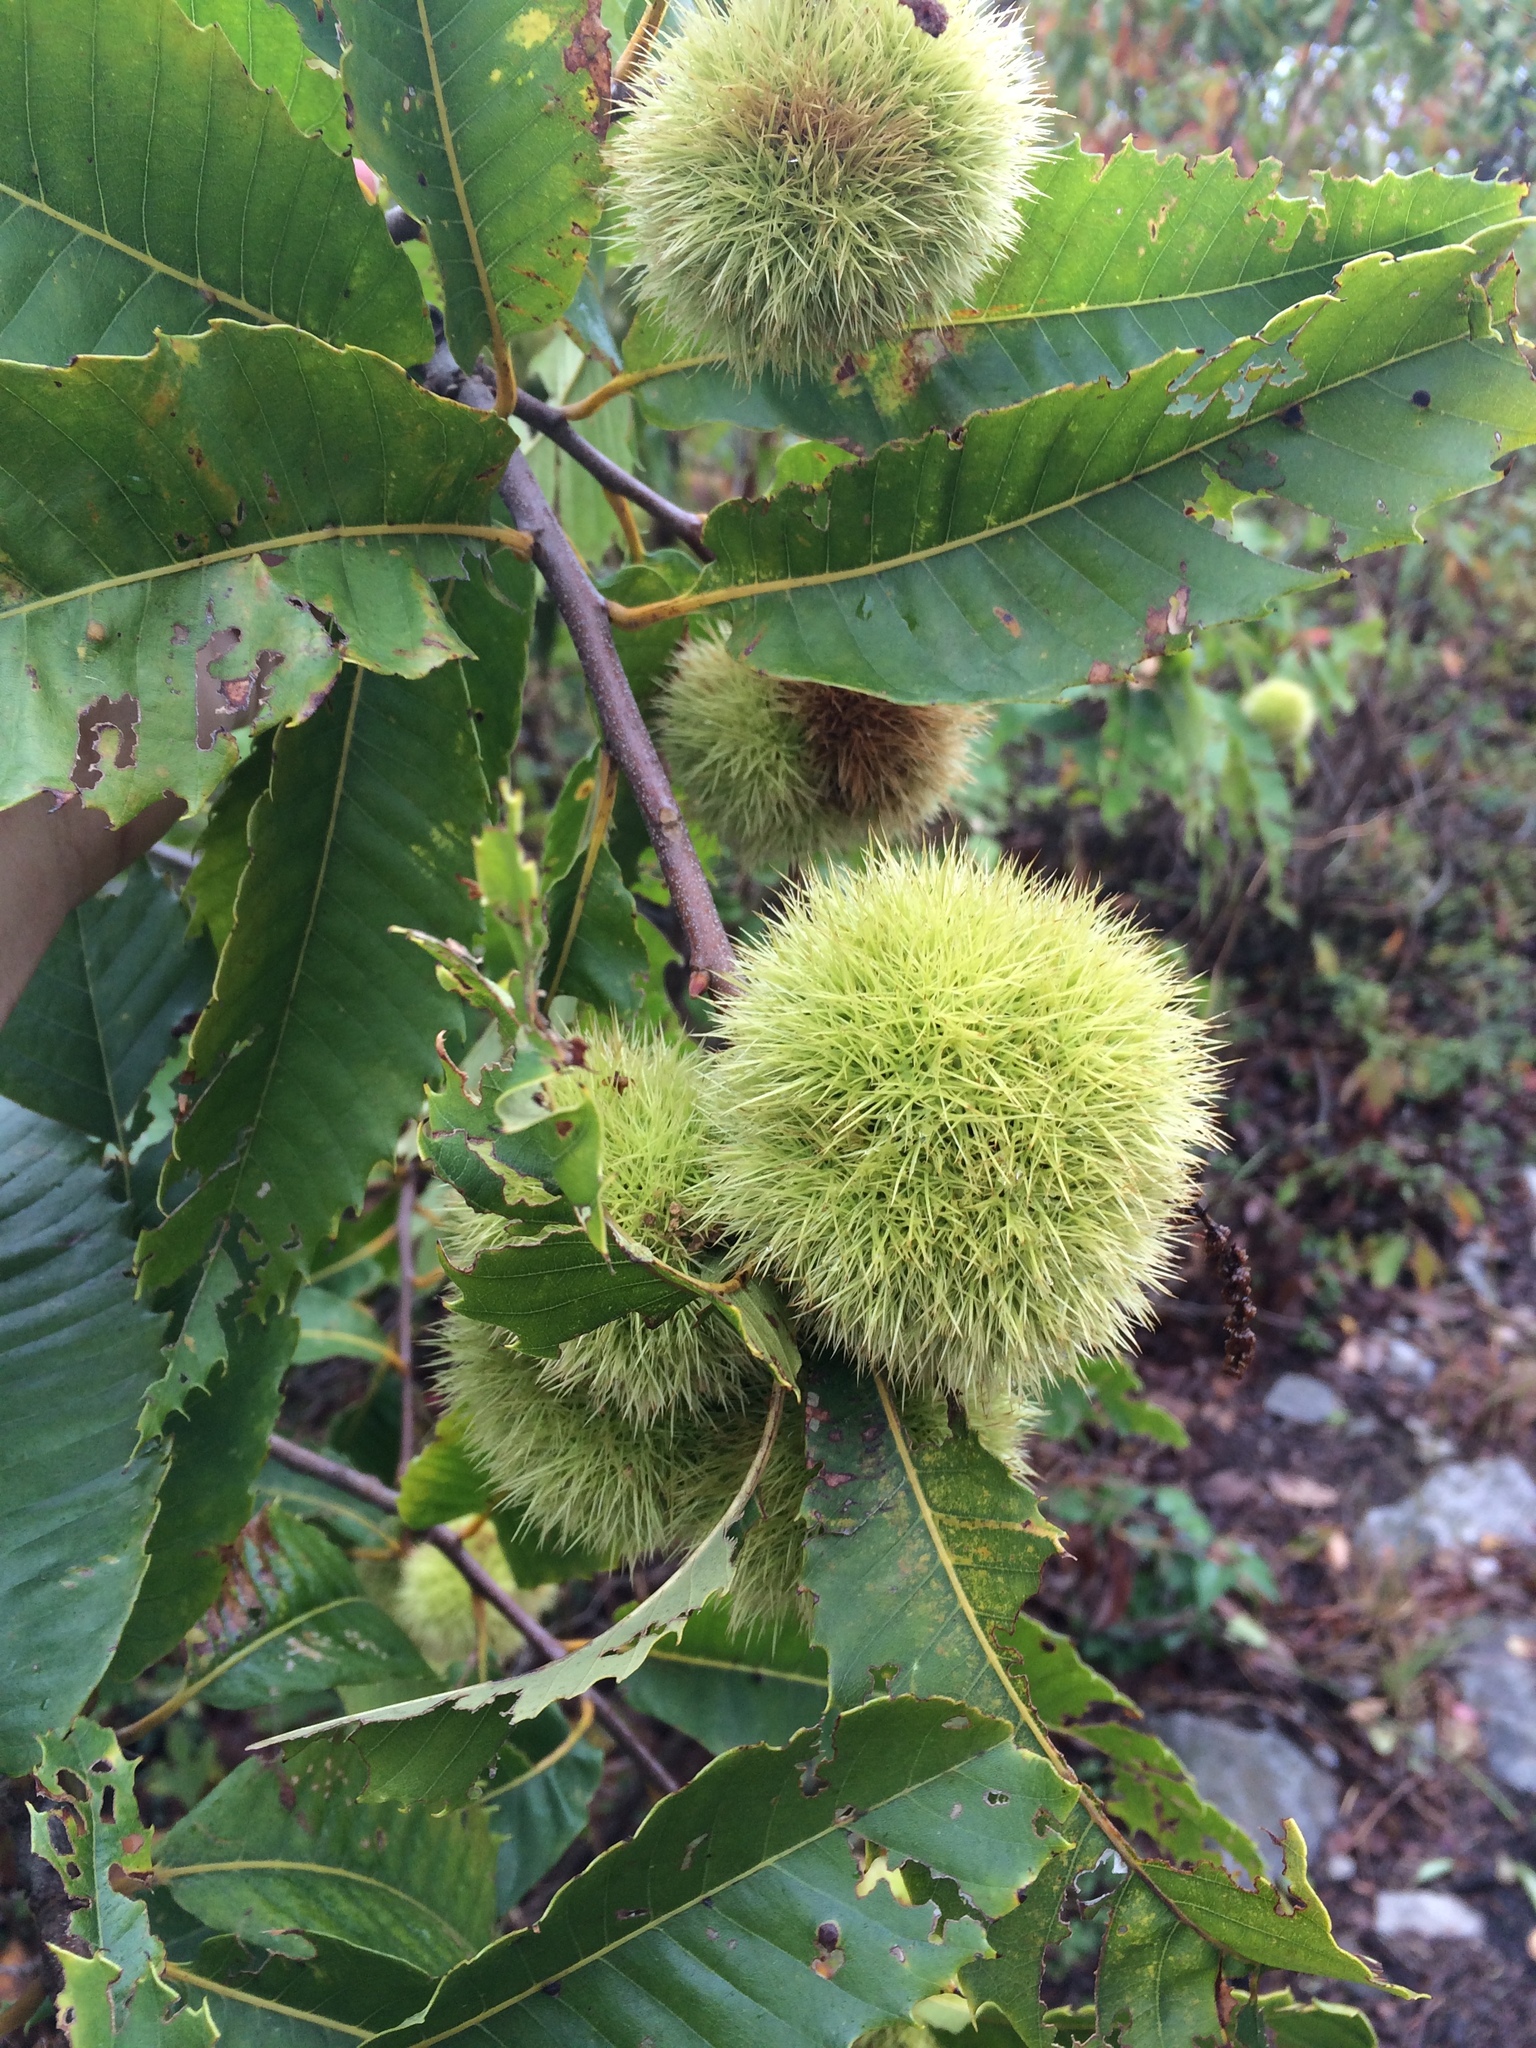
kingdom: Plantae
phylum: Tracheophyta
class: Magnoliopsida
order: Fagales
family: Fagaceae
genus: Castanea
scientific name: Castanea dentata
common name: American chestnut
